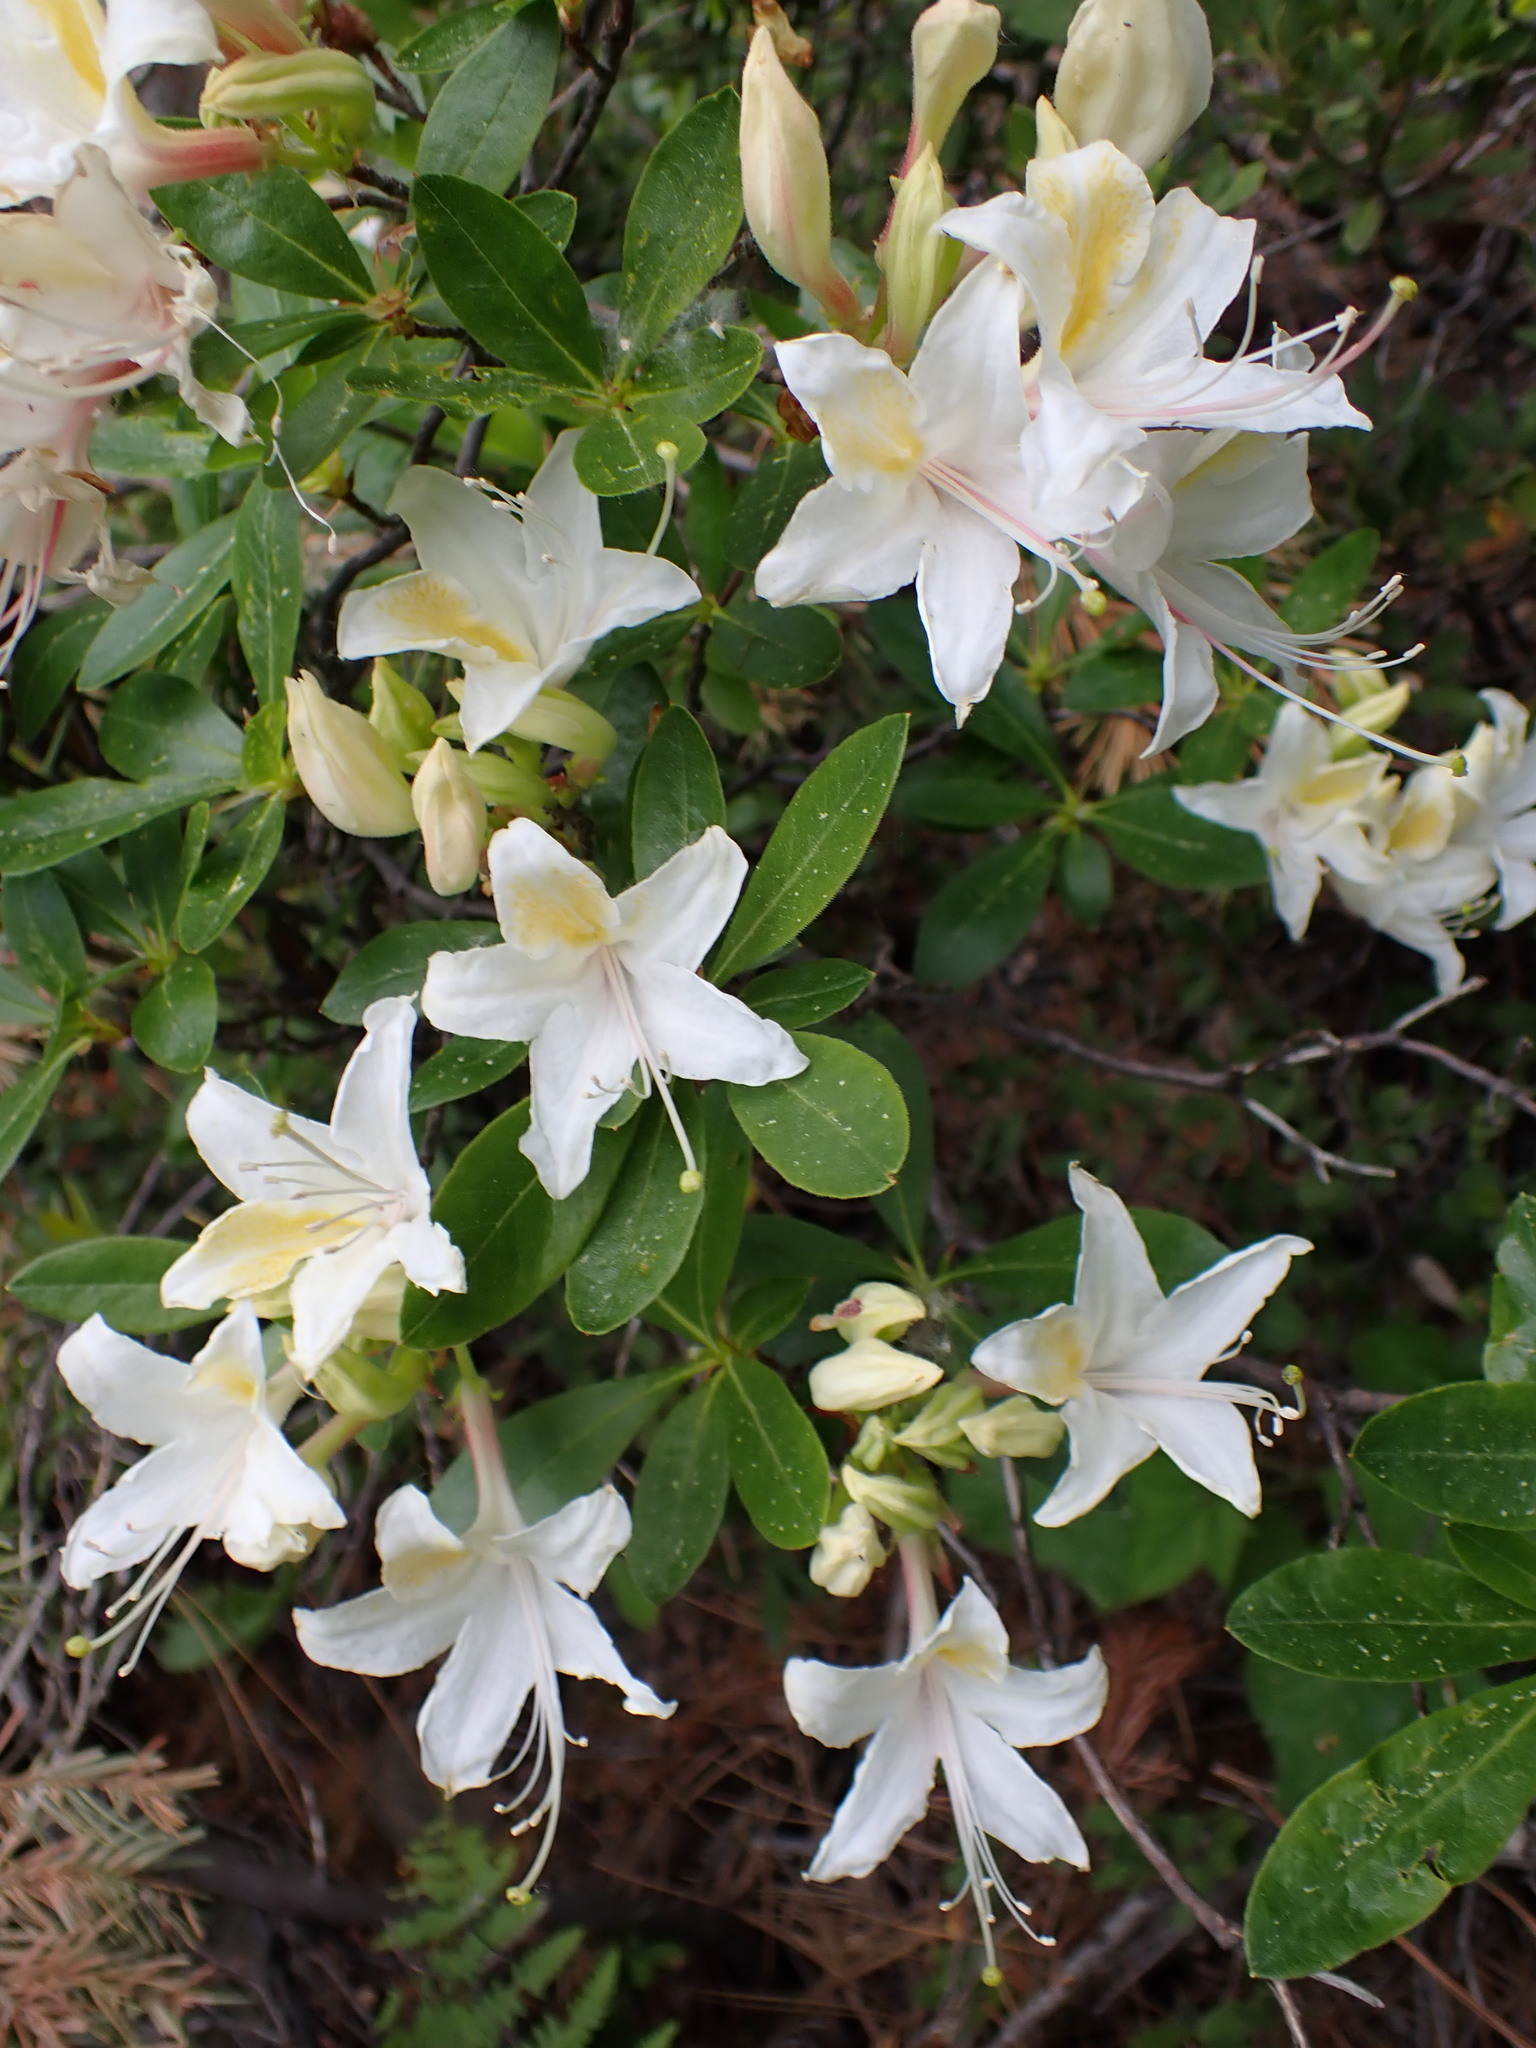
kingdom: Plantae
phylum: Tracheophyta
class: Magnoliopsida
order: Ericales
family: Ericaceae
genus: Rhododendron
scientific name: Rhododendron occidentale
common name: Western azalea
